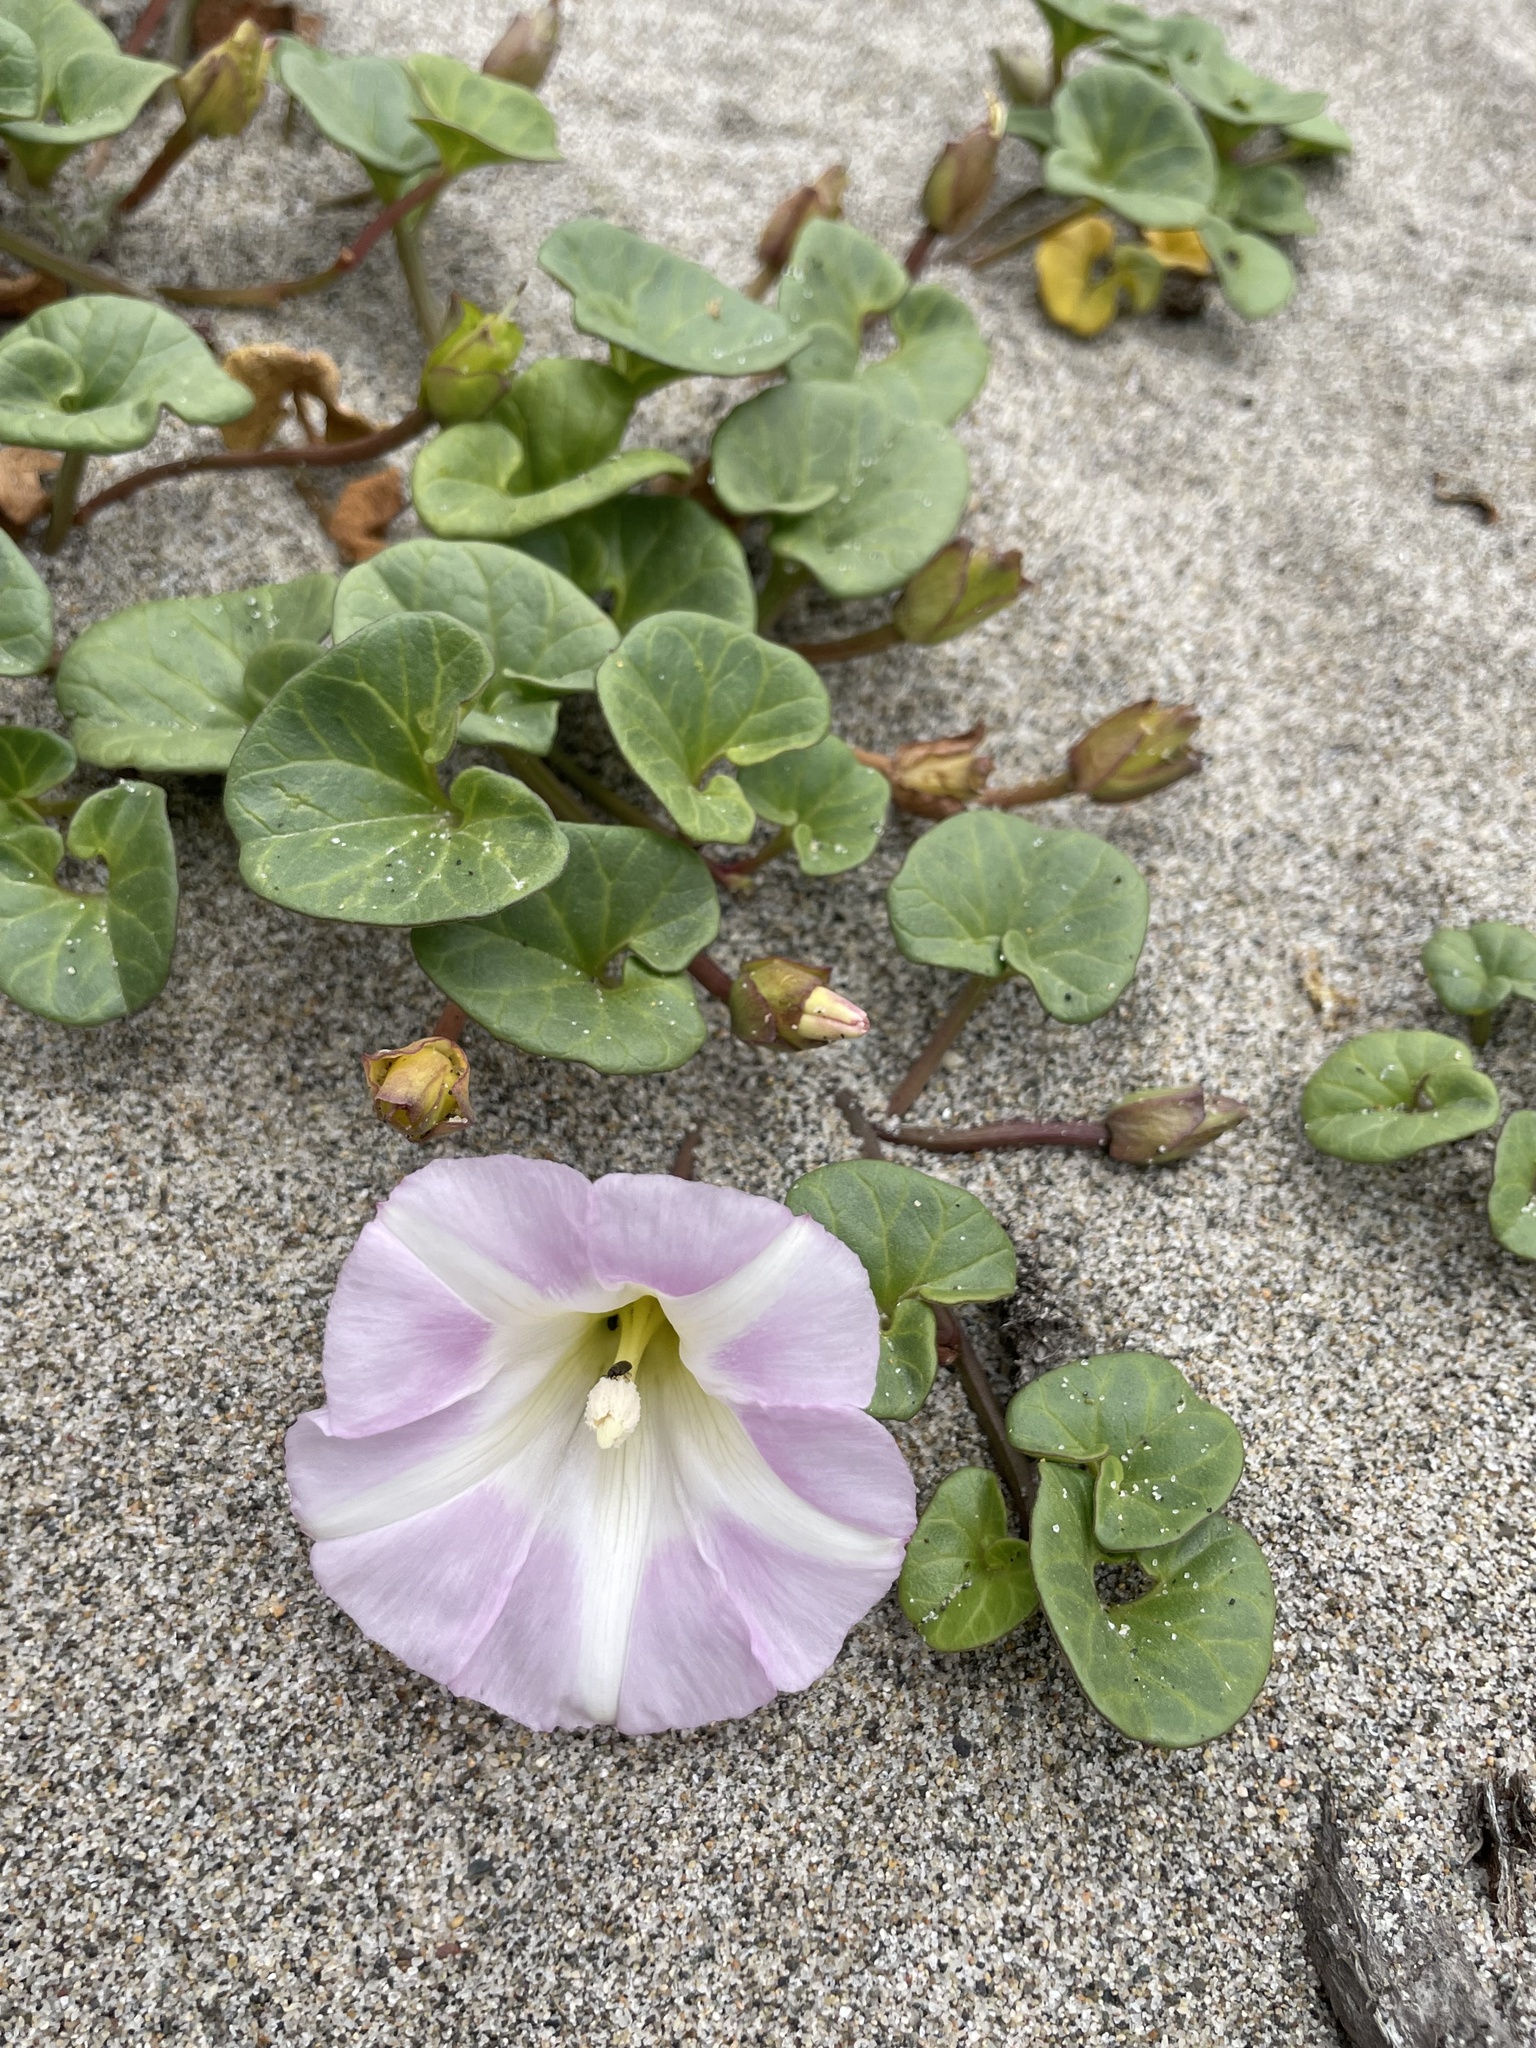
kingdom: Plantae
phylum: Tracheophyta
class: Magnoliopsida
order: Solanales
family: Convolvulaceae
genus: Calystegia
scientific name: Calystegia soldanella
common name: Sea bindweed
